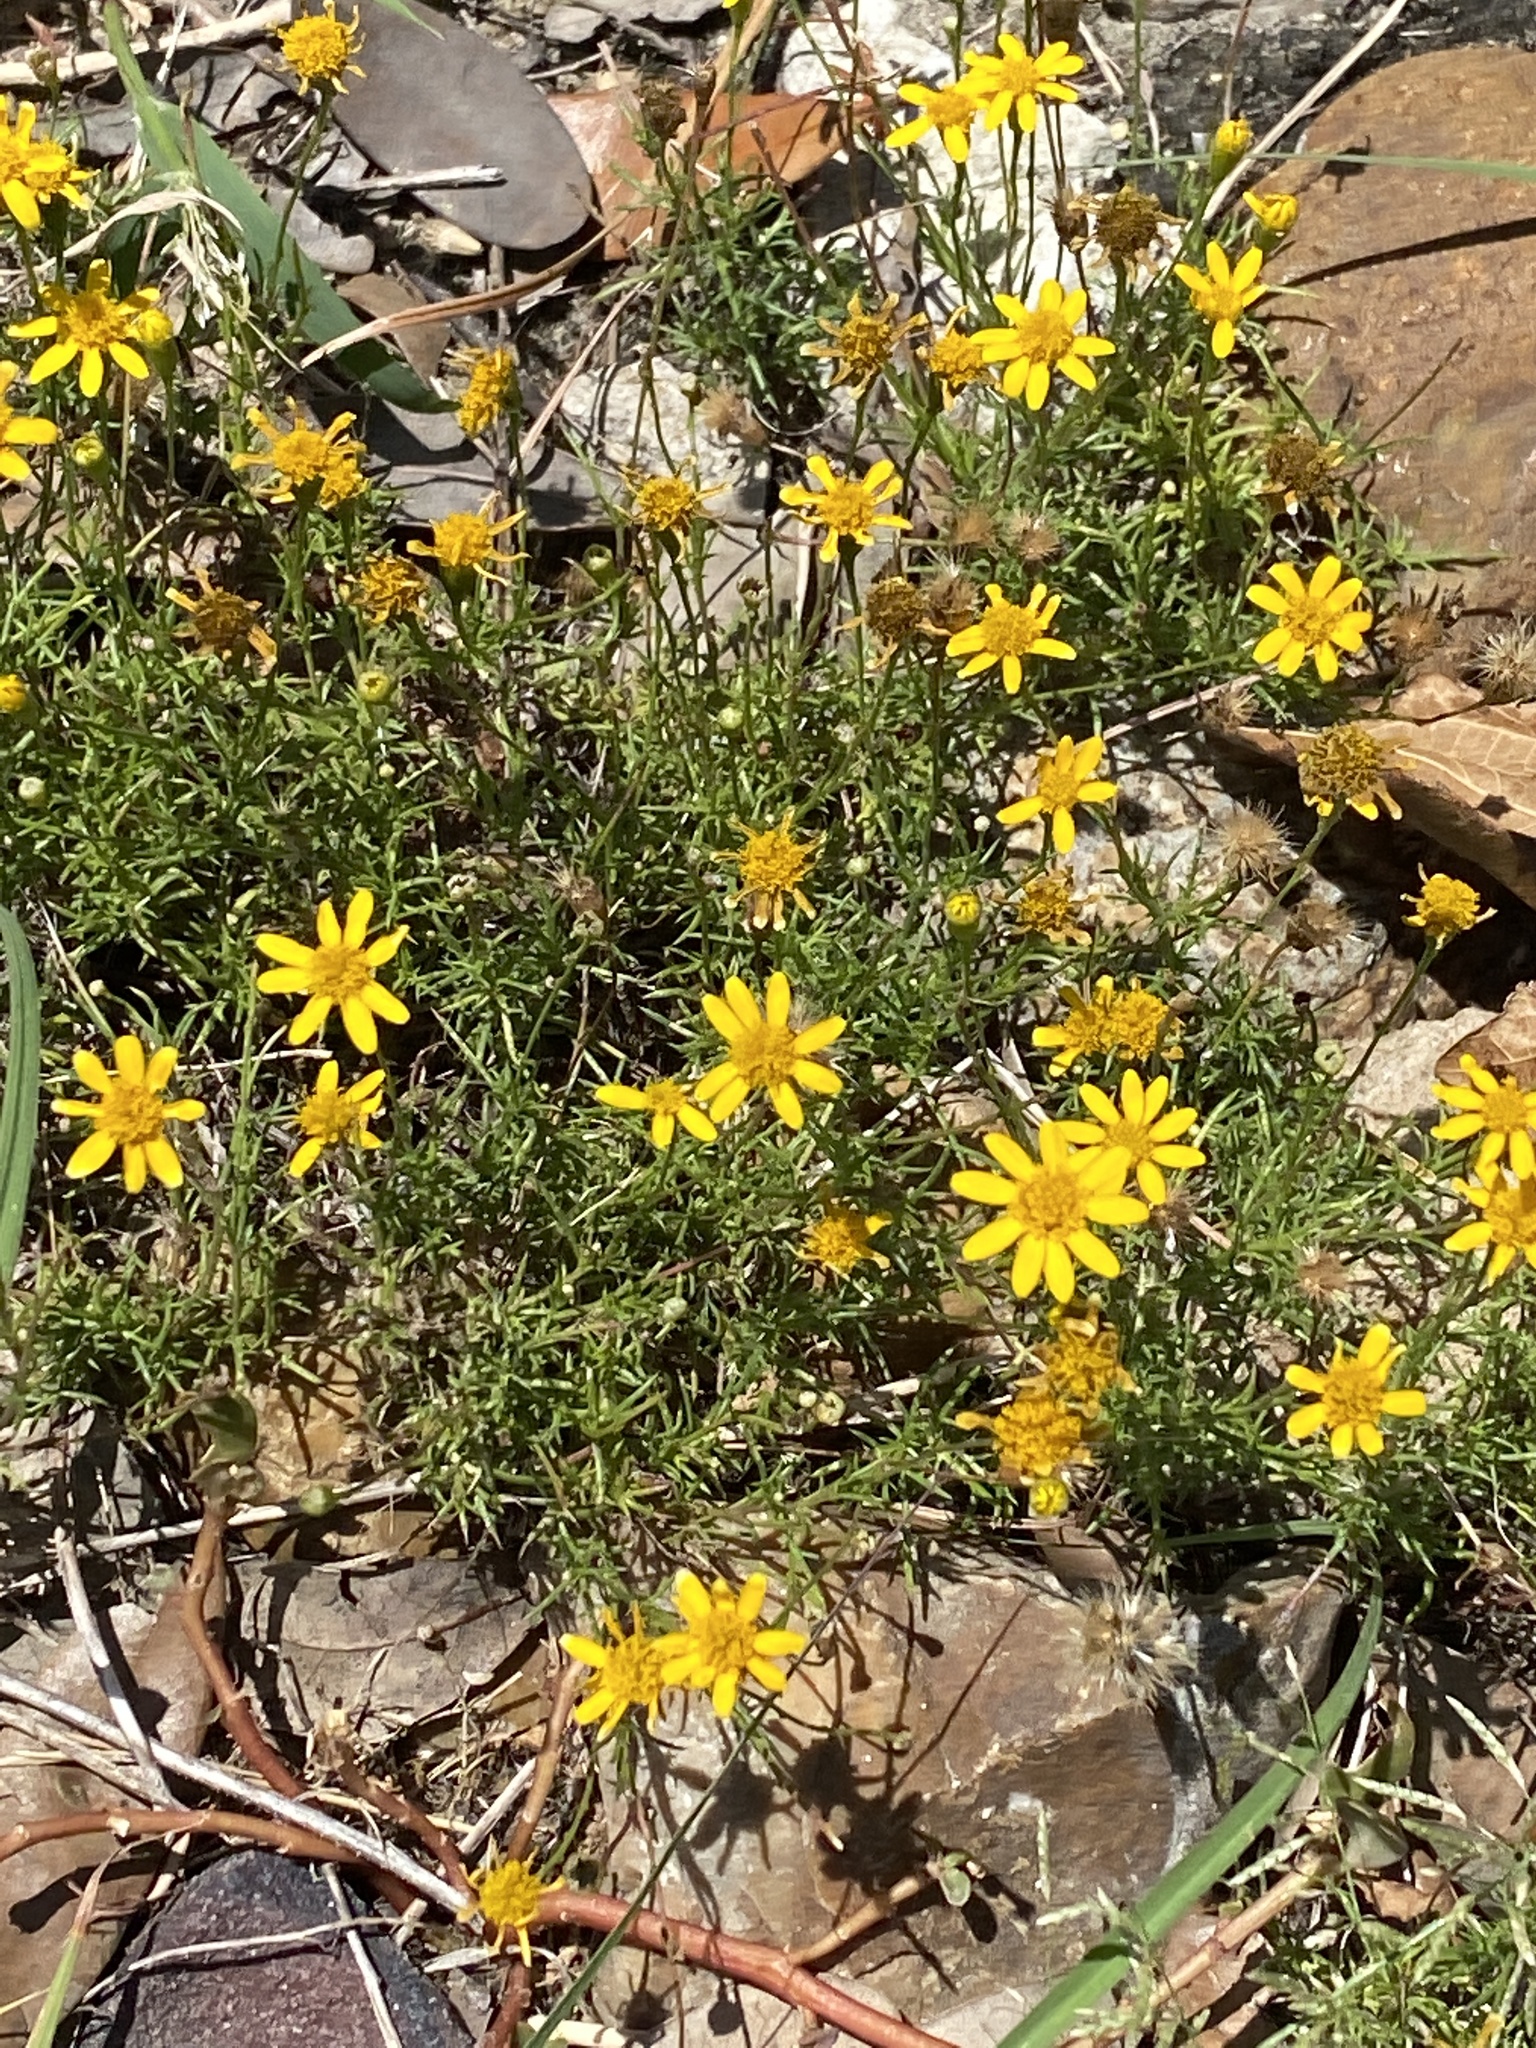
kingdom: Plantae
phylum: Tracheophyta
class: Magnoliopsida
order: Asterales
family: Asteraceae
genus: Thymophylla
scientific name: Thymophylla tenuiloba
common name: Dahlberg's daisy
